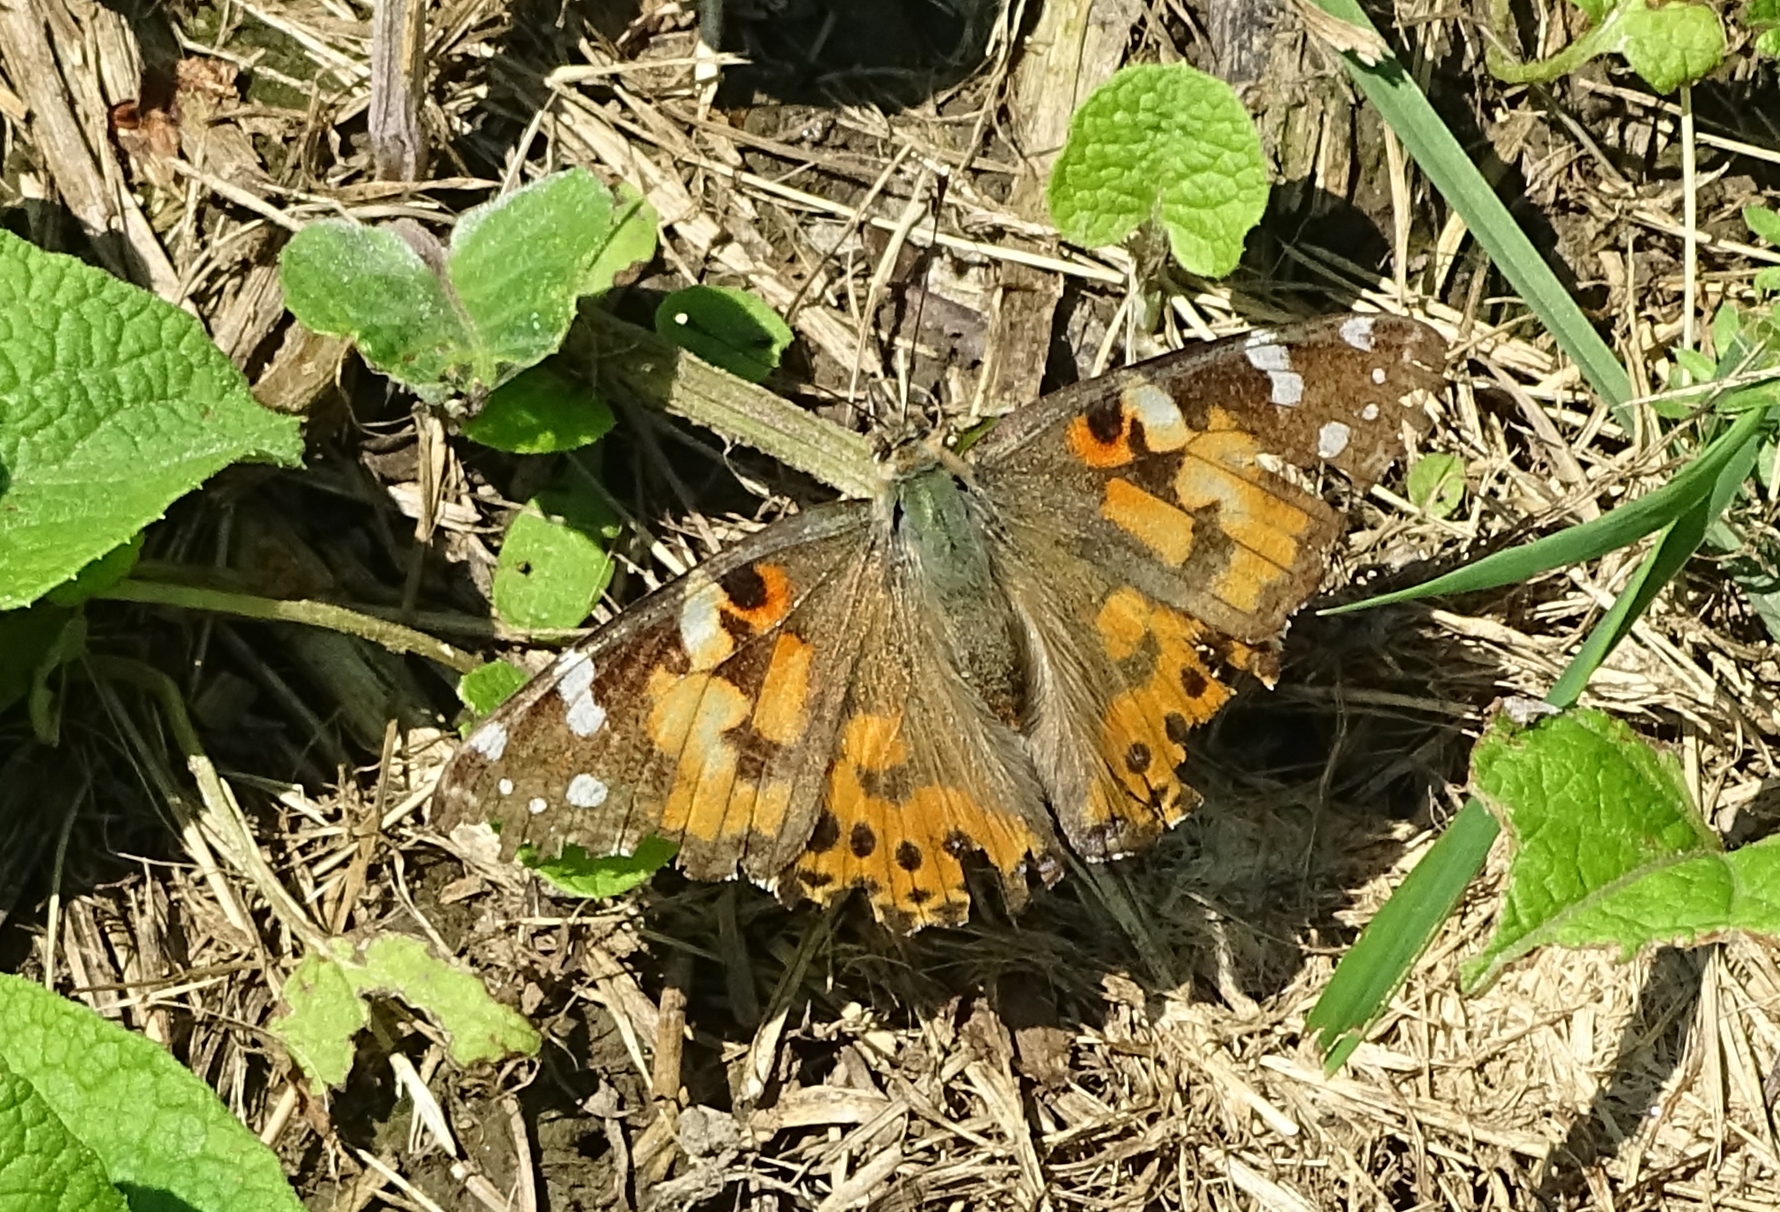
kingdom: Animalia
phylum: Arthropoda
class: Insecta
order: Lepidoptera
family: Nymphalidae
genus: Vanessa
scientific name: Vanessa cardui
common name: Painted lady
